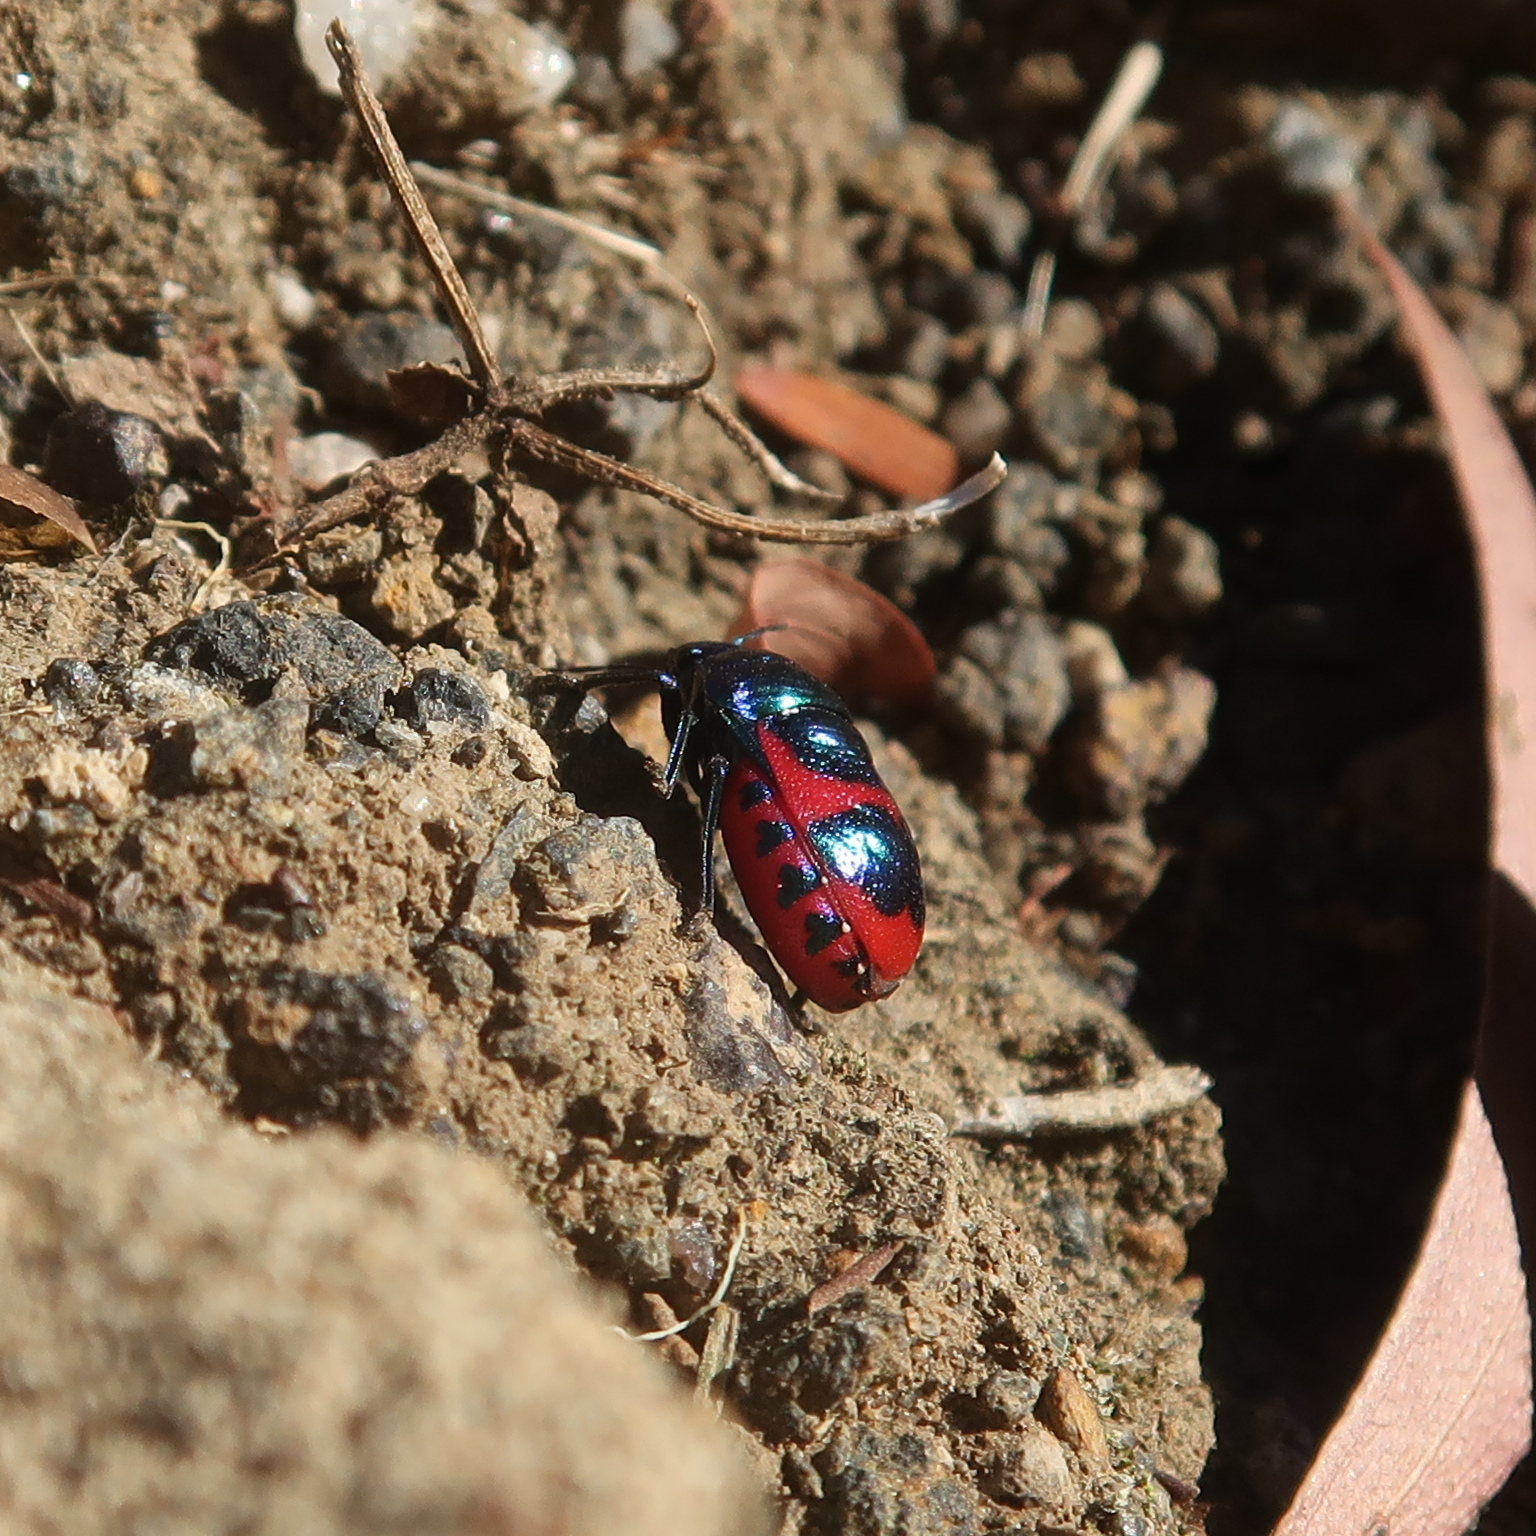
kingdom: Animalia
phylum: Arthropoda
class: Insecta
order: Hemiptera
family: Scutelleridae
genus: Choerocoris
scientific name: Choerocoris paganus
